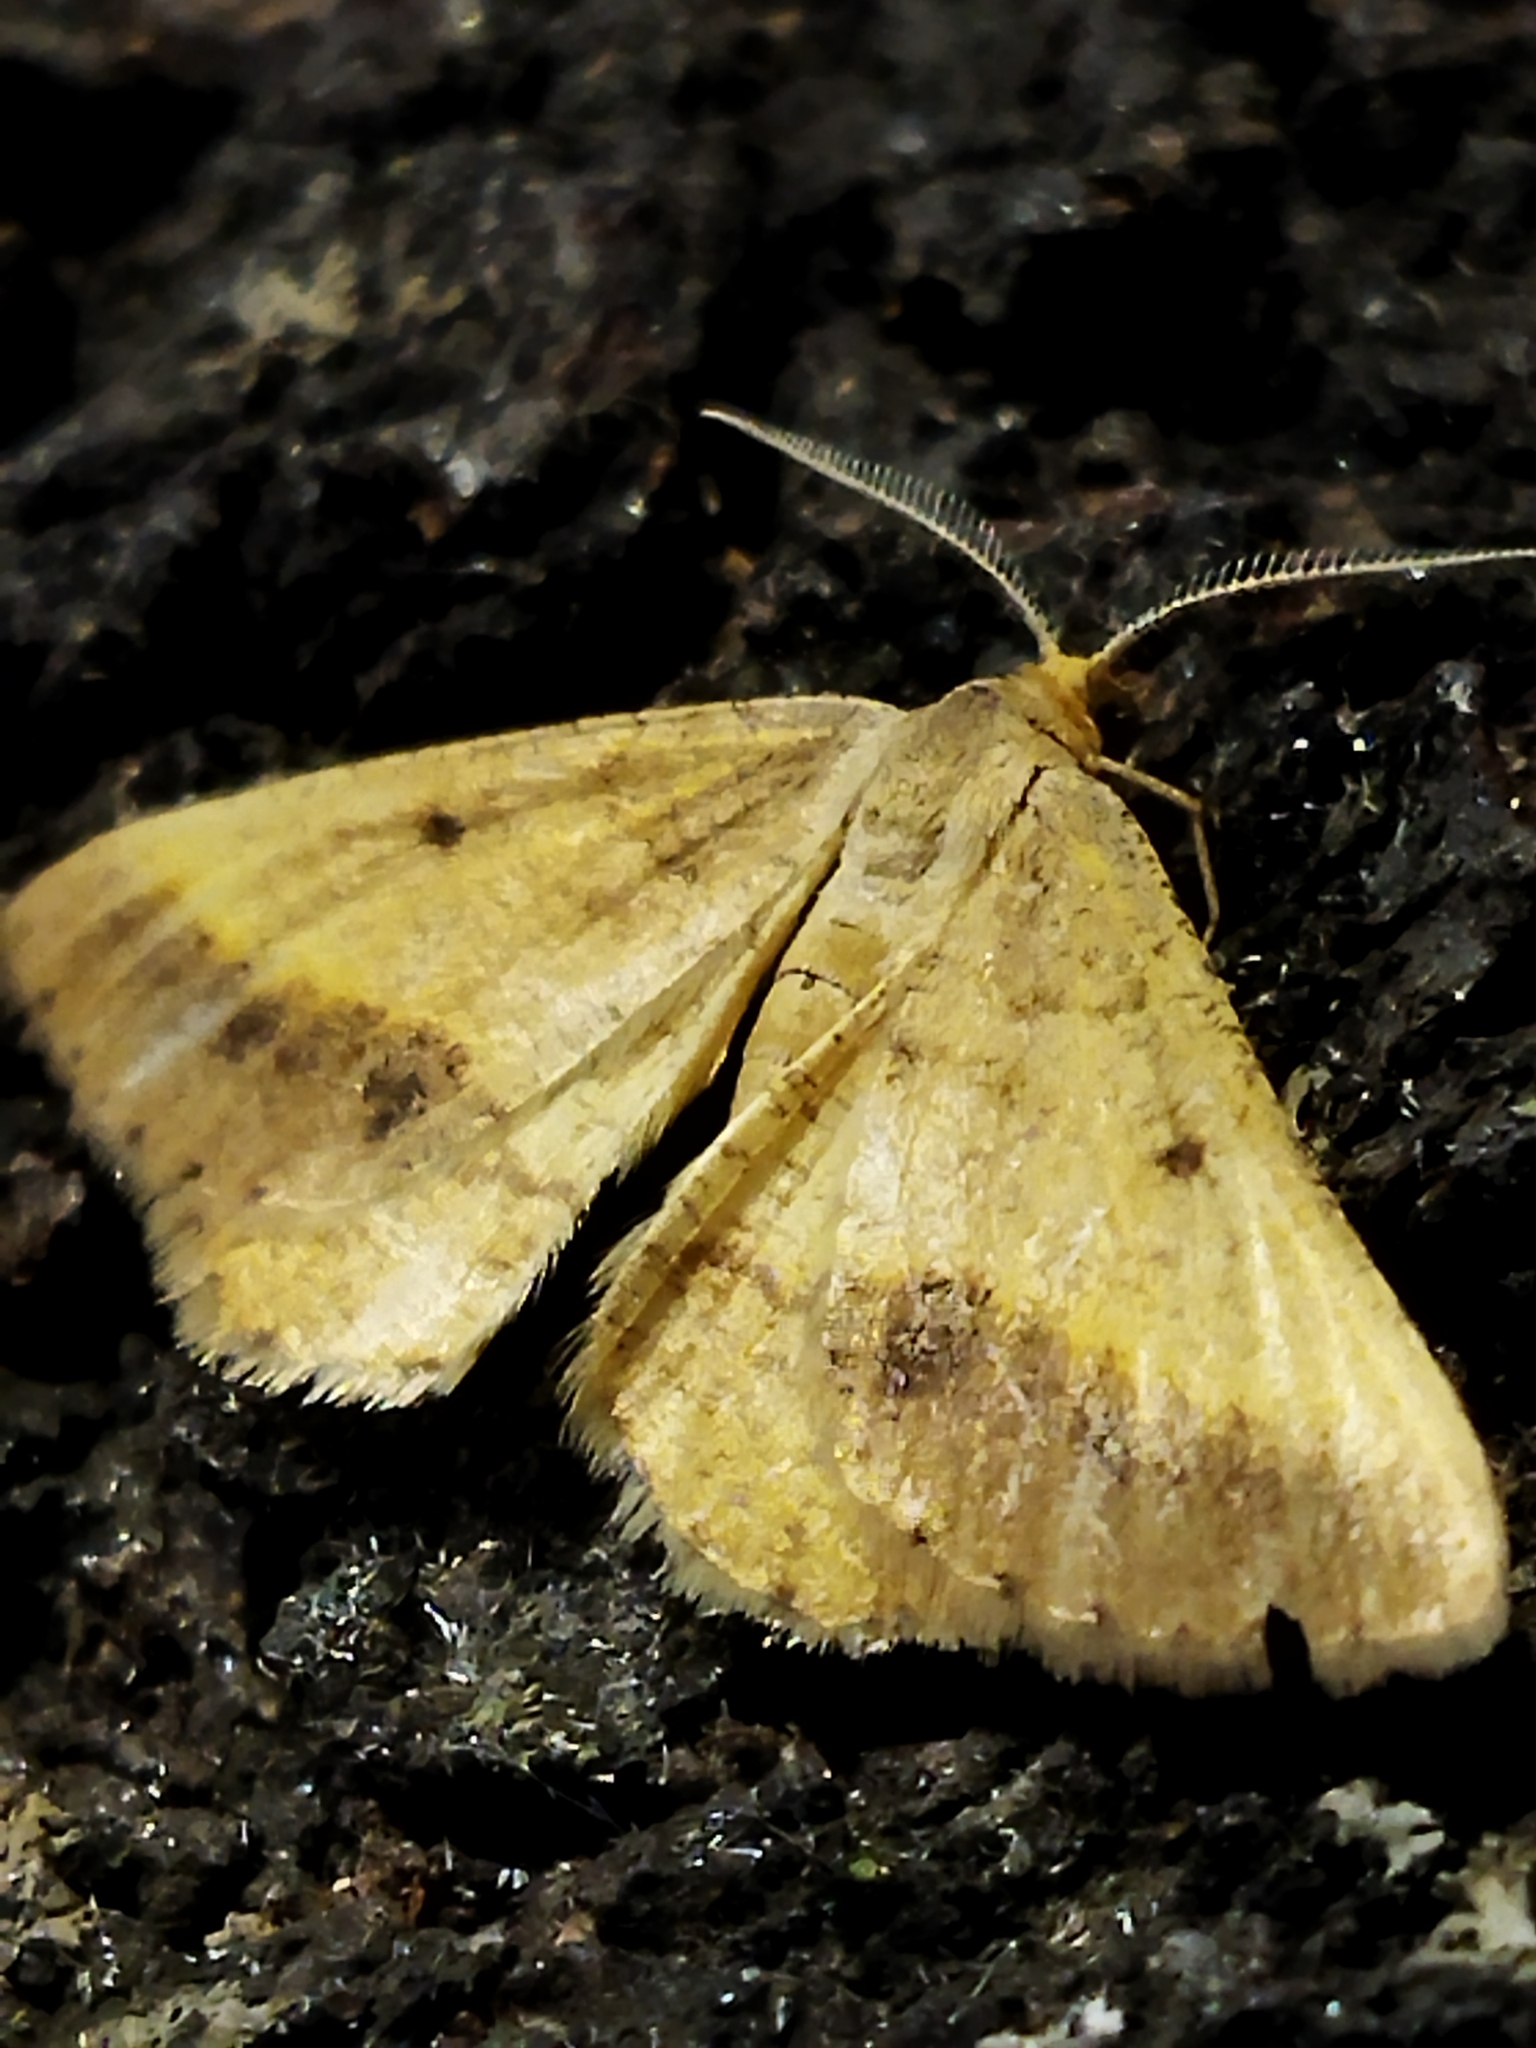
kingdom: Animalia
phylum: Arthropoda
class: Insecta
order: Lepidoptera
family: Geometridae
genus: Tephrina
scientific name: Tephrina arenacearia
